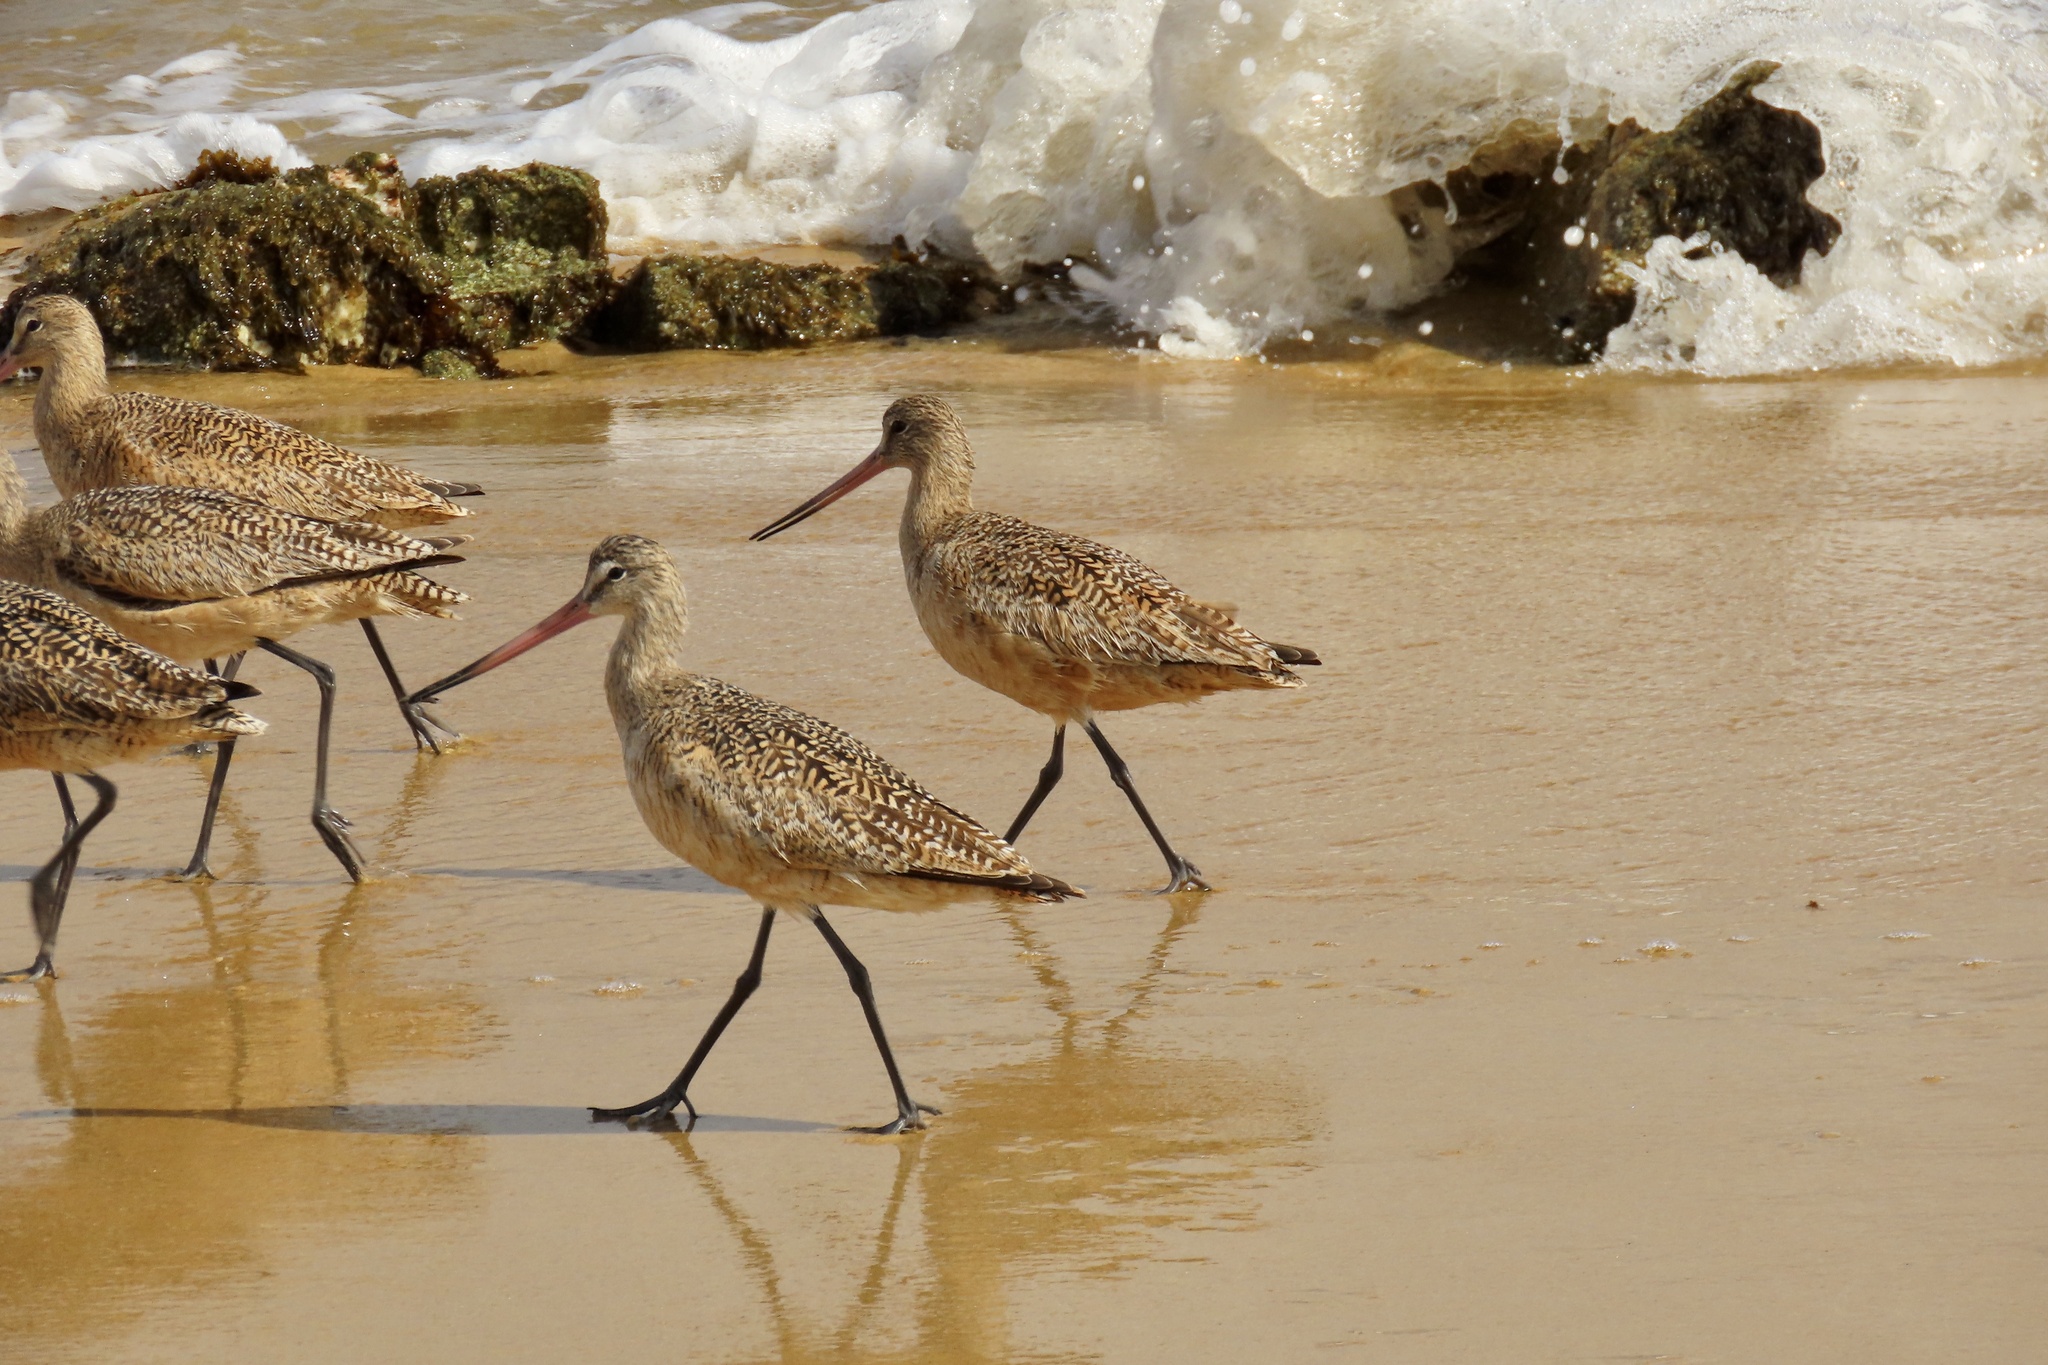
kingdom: Animalia
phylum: Chordata
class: Aves
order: Charadriiformes
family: Scolopacidae
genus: Limosa
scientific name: Limosa fedoa
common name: Marbled godwit
